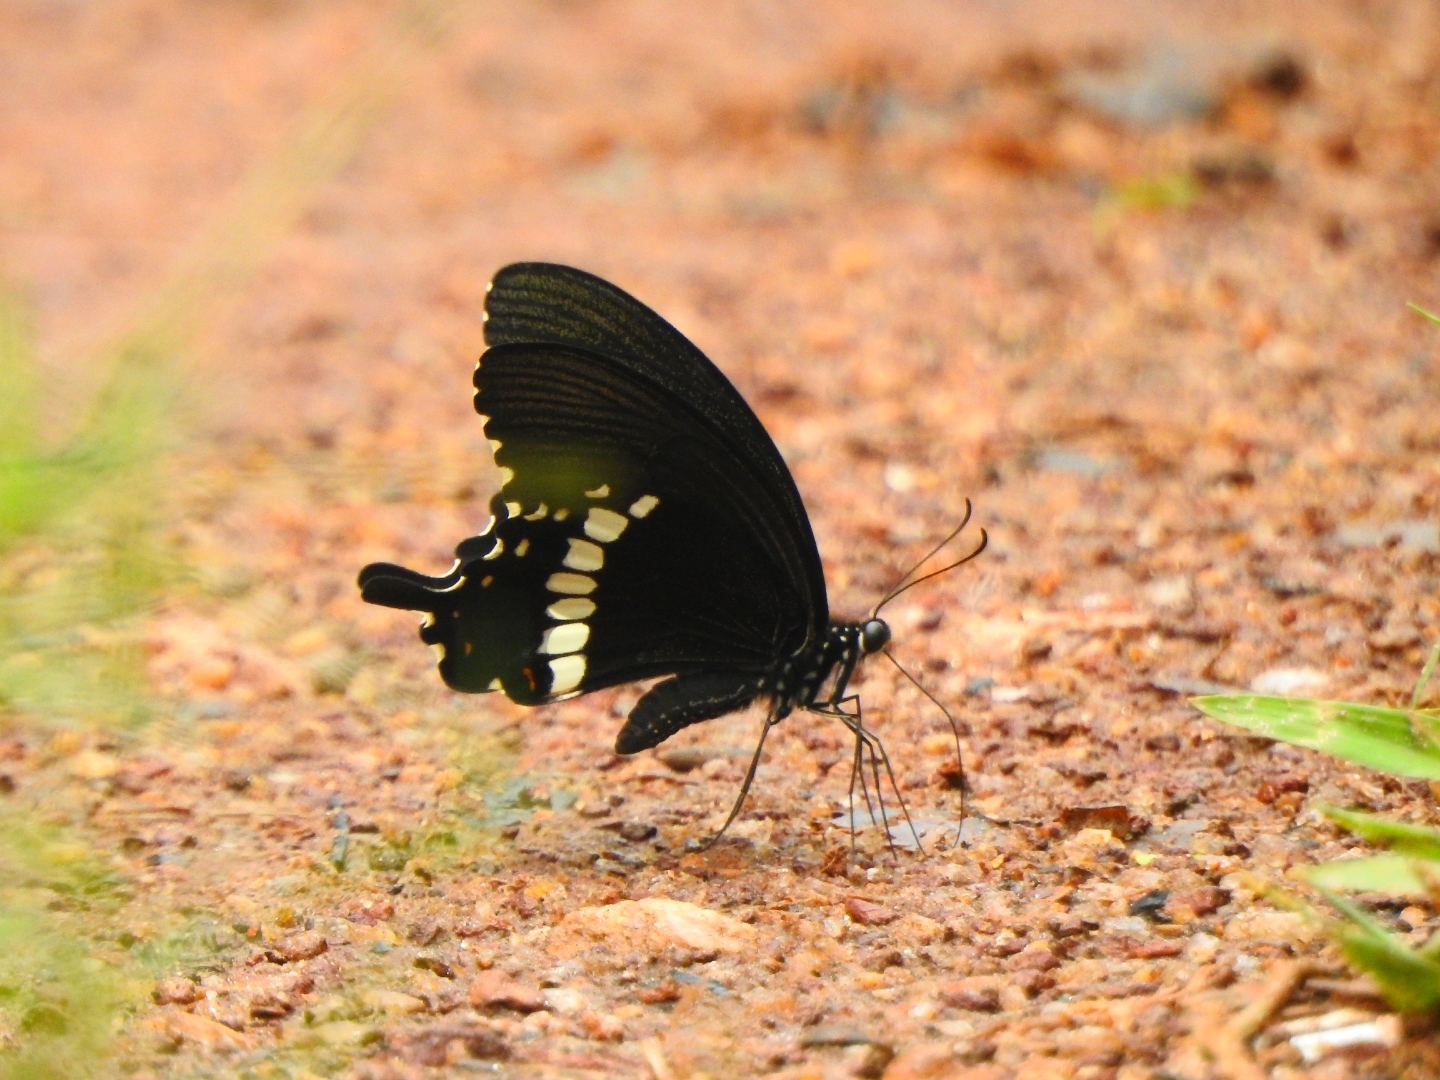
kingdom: Animalia
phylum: Arthropoda
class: Insecta
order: Lepidoptera
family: Papilionidae
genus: Papilio
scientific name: Papilio polytes
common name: Common mormon
